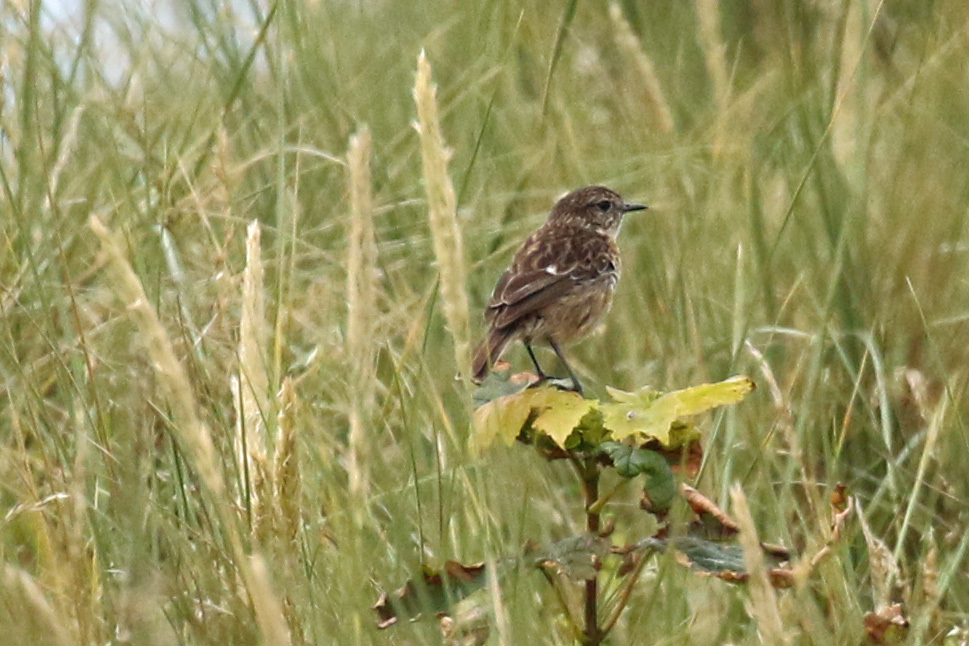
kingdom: Animalia
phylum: Chordata
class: Aves
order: Passeriformes
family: Muscicapidae
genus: Saxicola
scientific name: Saxicola rubicola
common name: European stonechat
